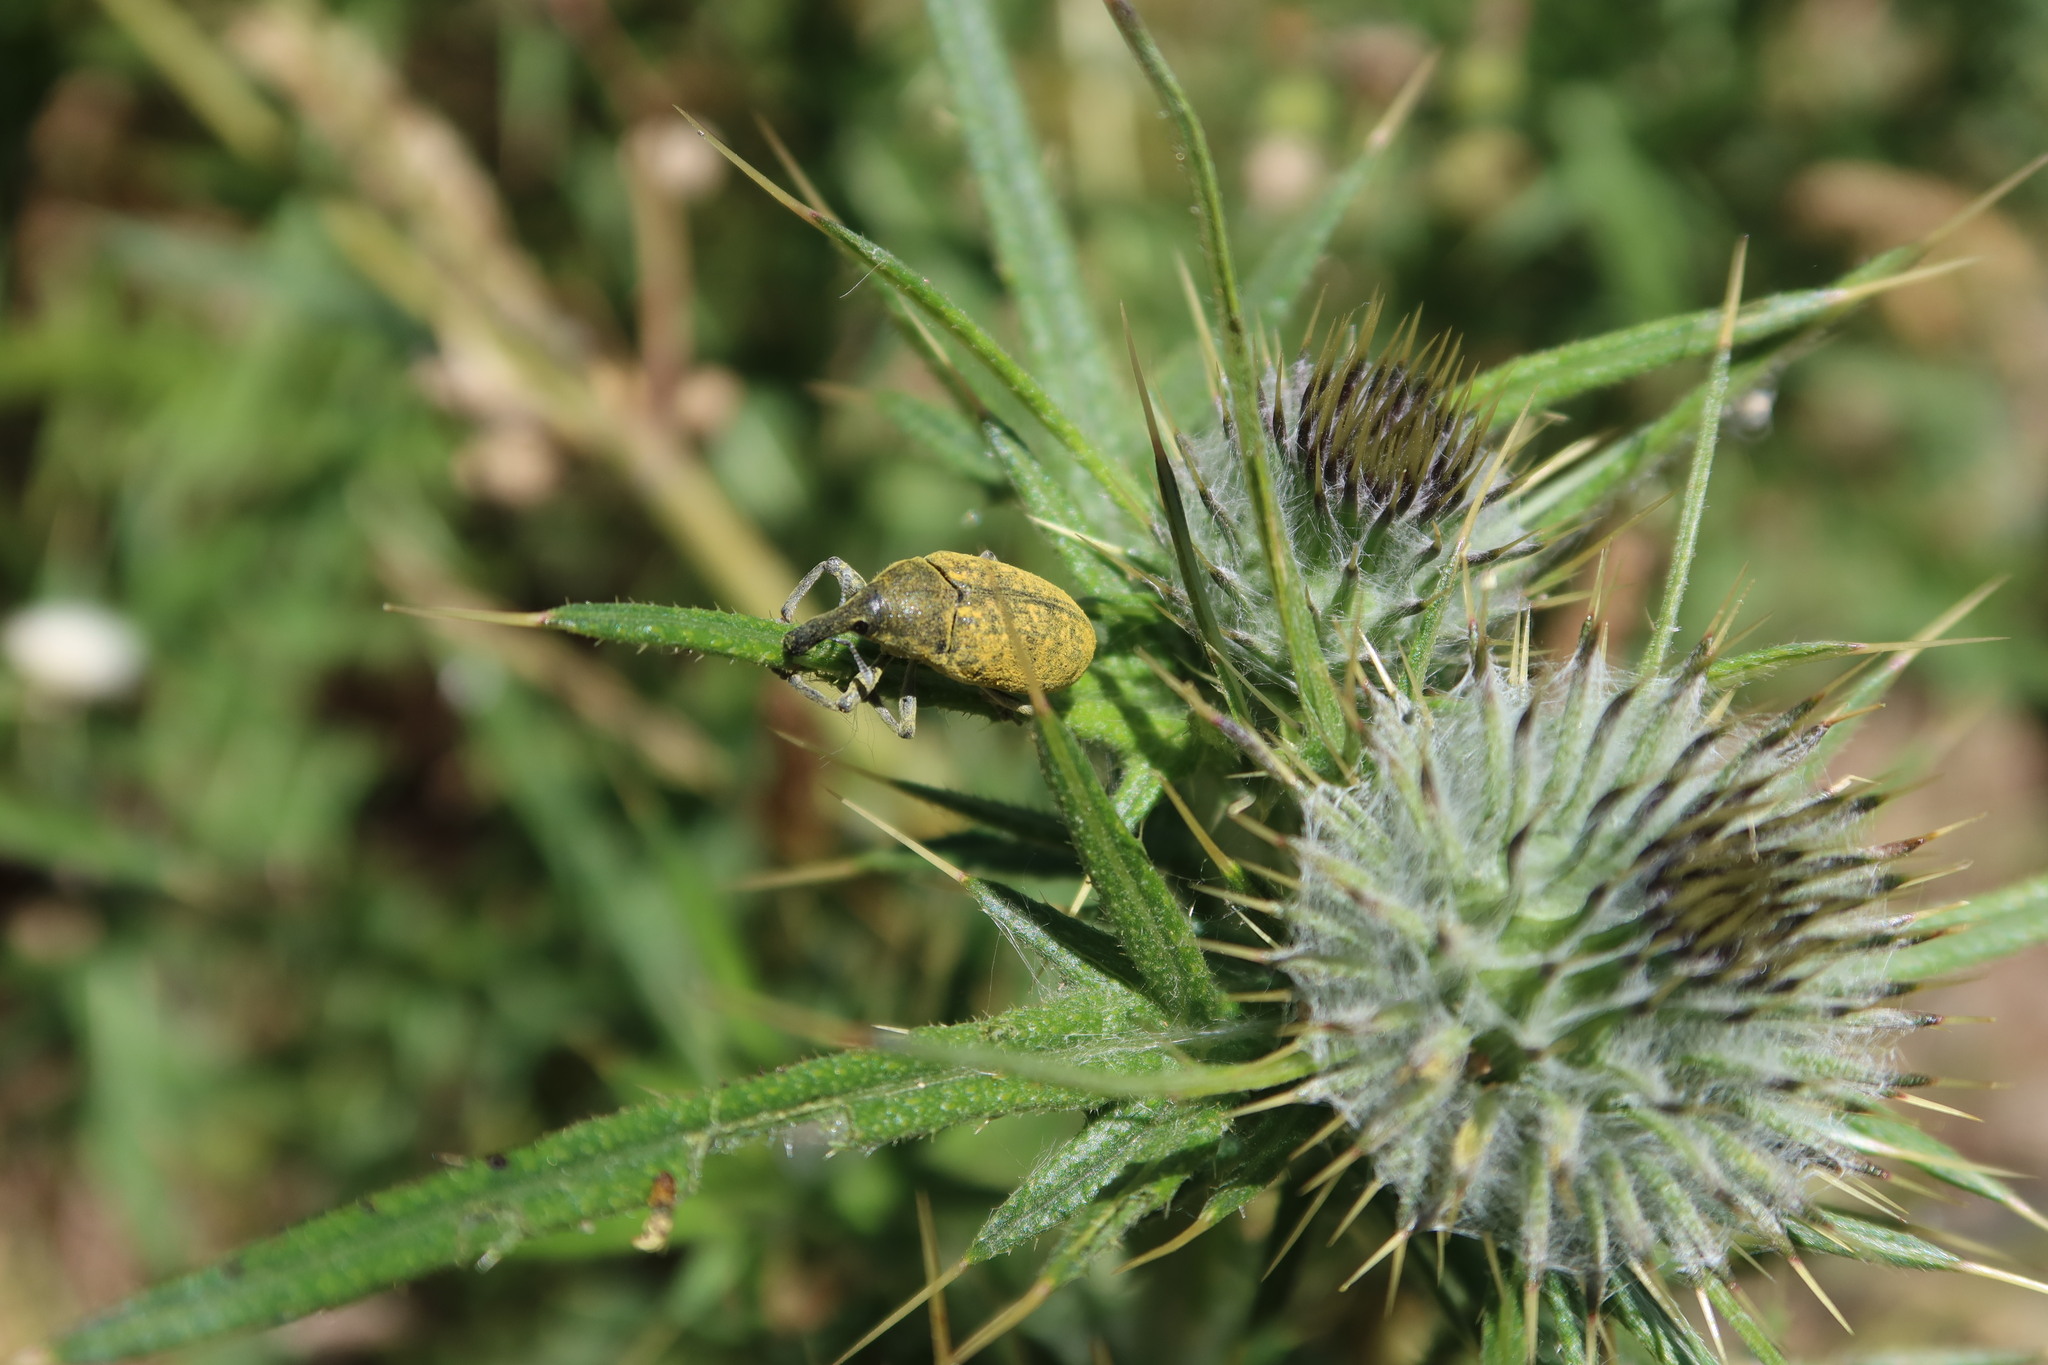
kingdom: Animalia
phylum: Arthropoda
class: Insecta
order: Coleoptera
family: Curculionidae
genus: Larinus
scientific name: Larinus latus
